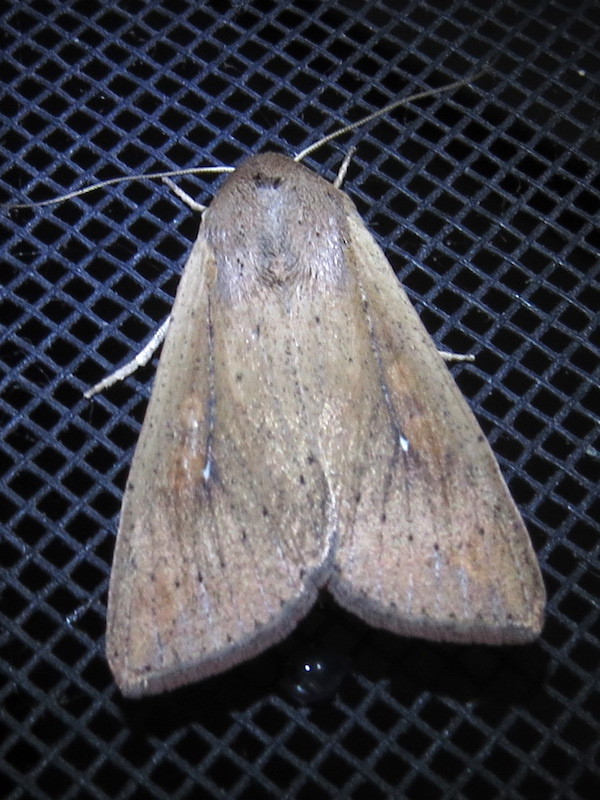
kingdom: Animalia
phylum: Arthropoda
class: Insecta
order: Lepidoptera
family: Noctuidae
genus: Mythimna
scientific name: Mythimna unipuncta
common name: White-speck
